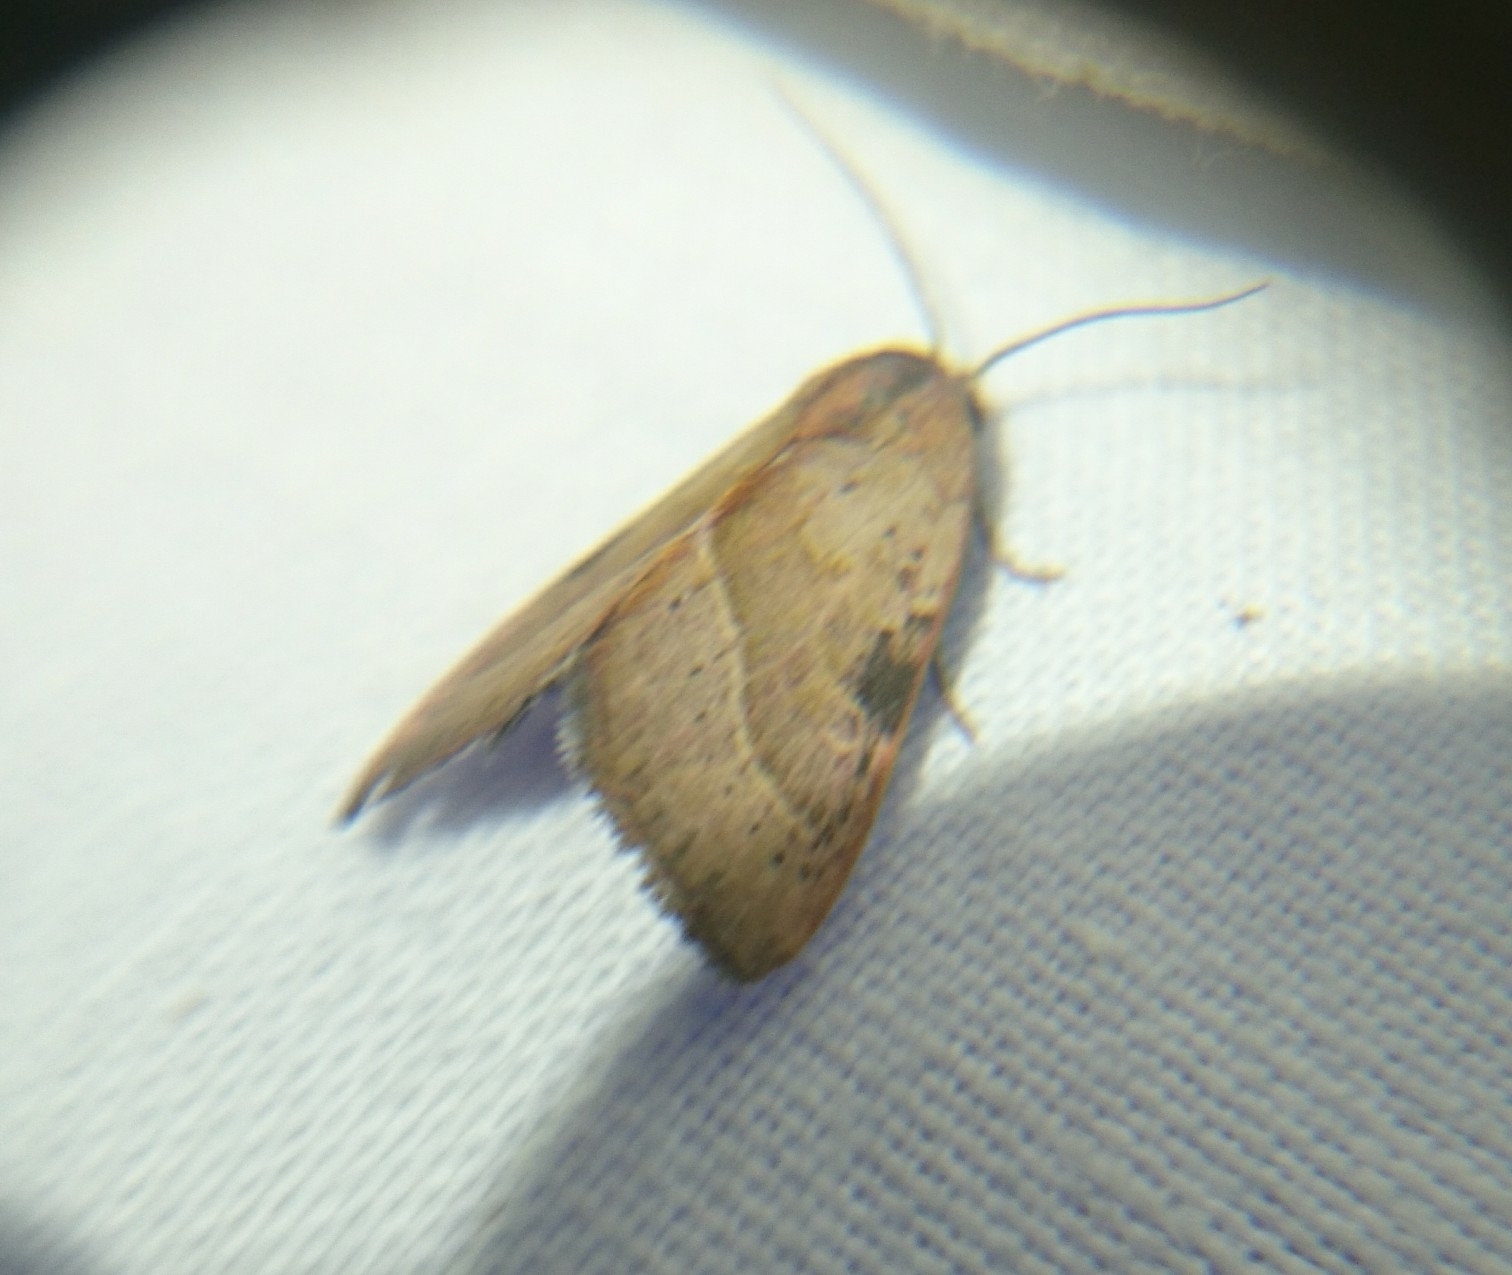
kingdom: Animalia
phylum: Arthropoda
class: Insecta
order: Lepidoptera
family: Noctuidae
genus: Galgula
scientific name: Galgula partita
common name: Wedgeling
